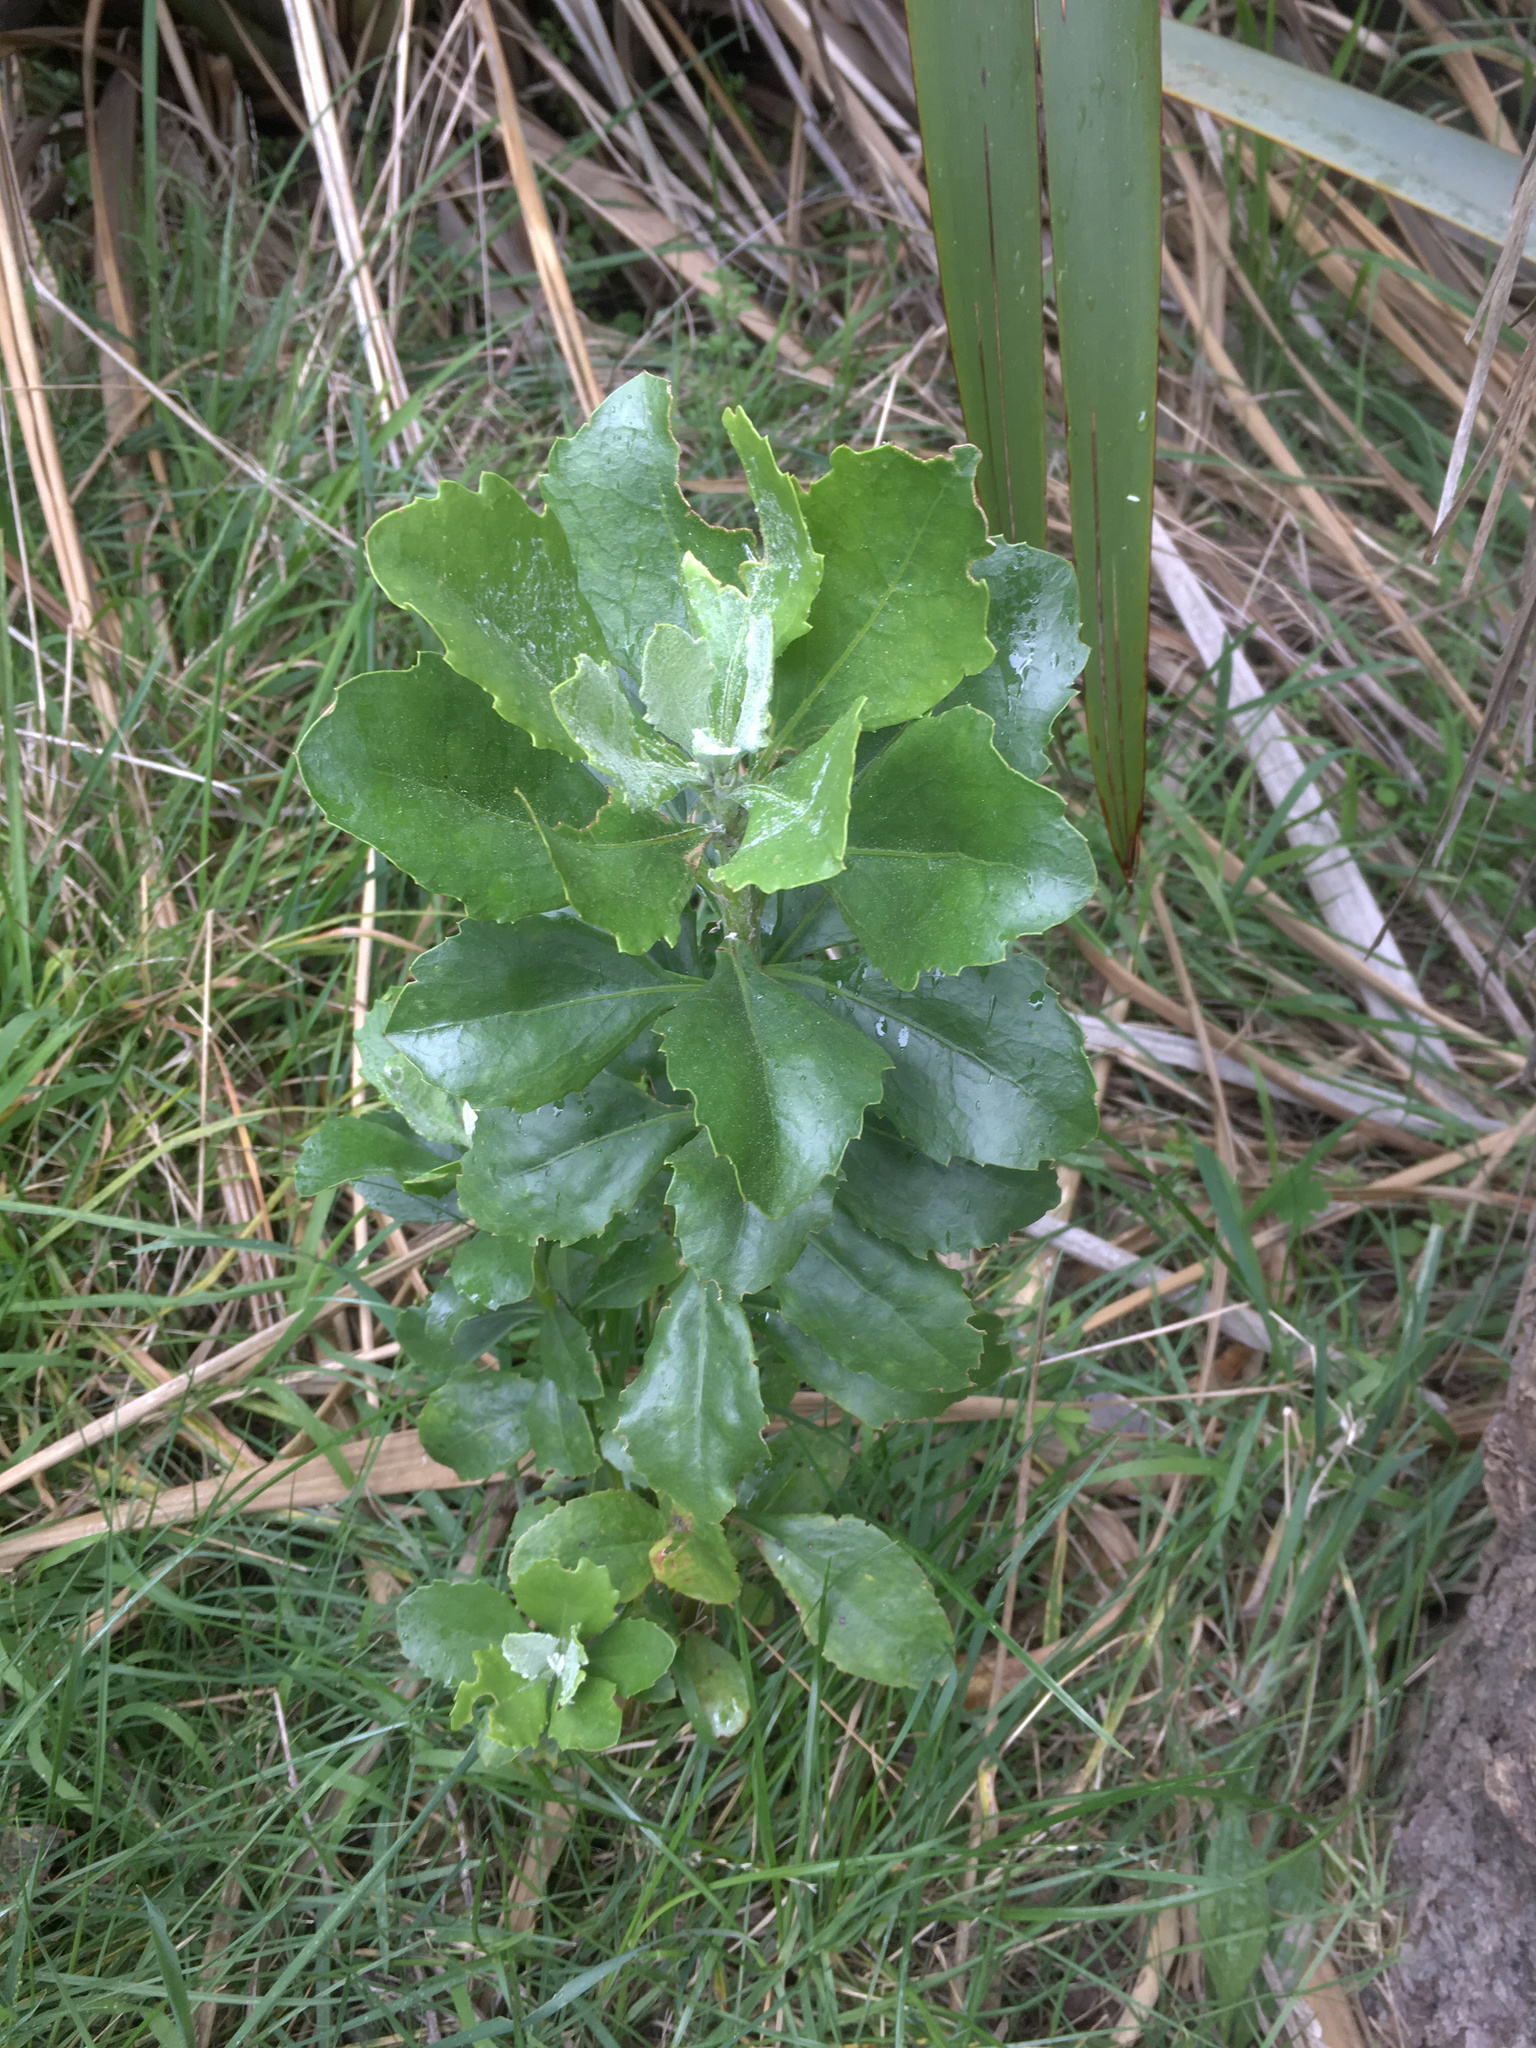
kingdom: Plantae
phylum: Tracheophyta
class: Magnoliopsida
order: Asterales
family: Asteraceae
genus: Osteospermum
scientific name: Osteospermum moniliferum
